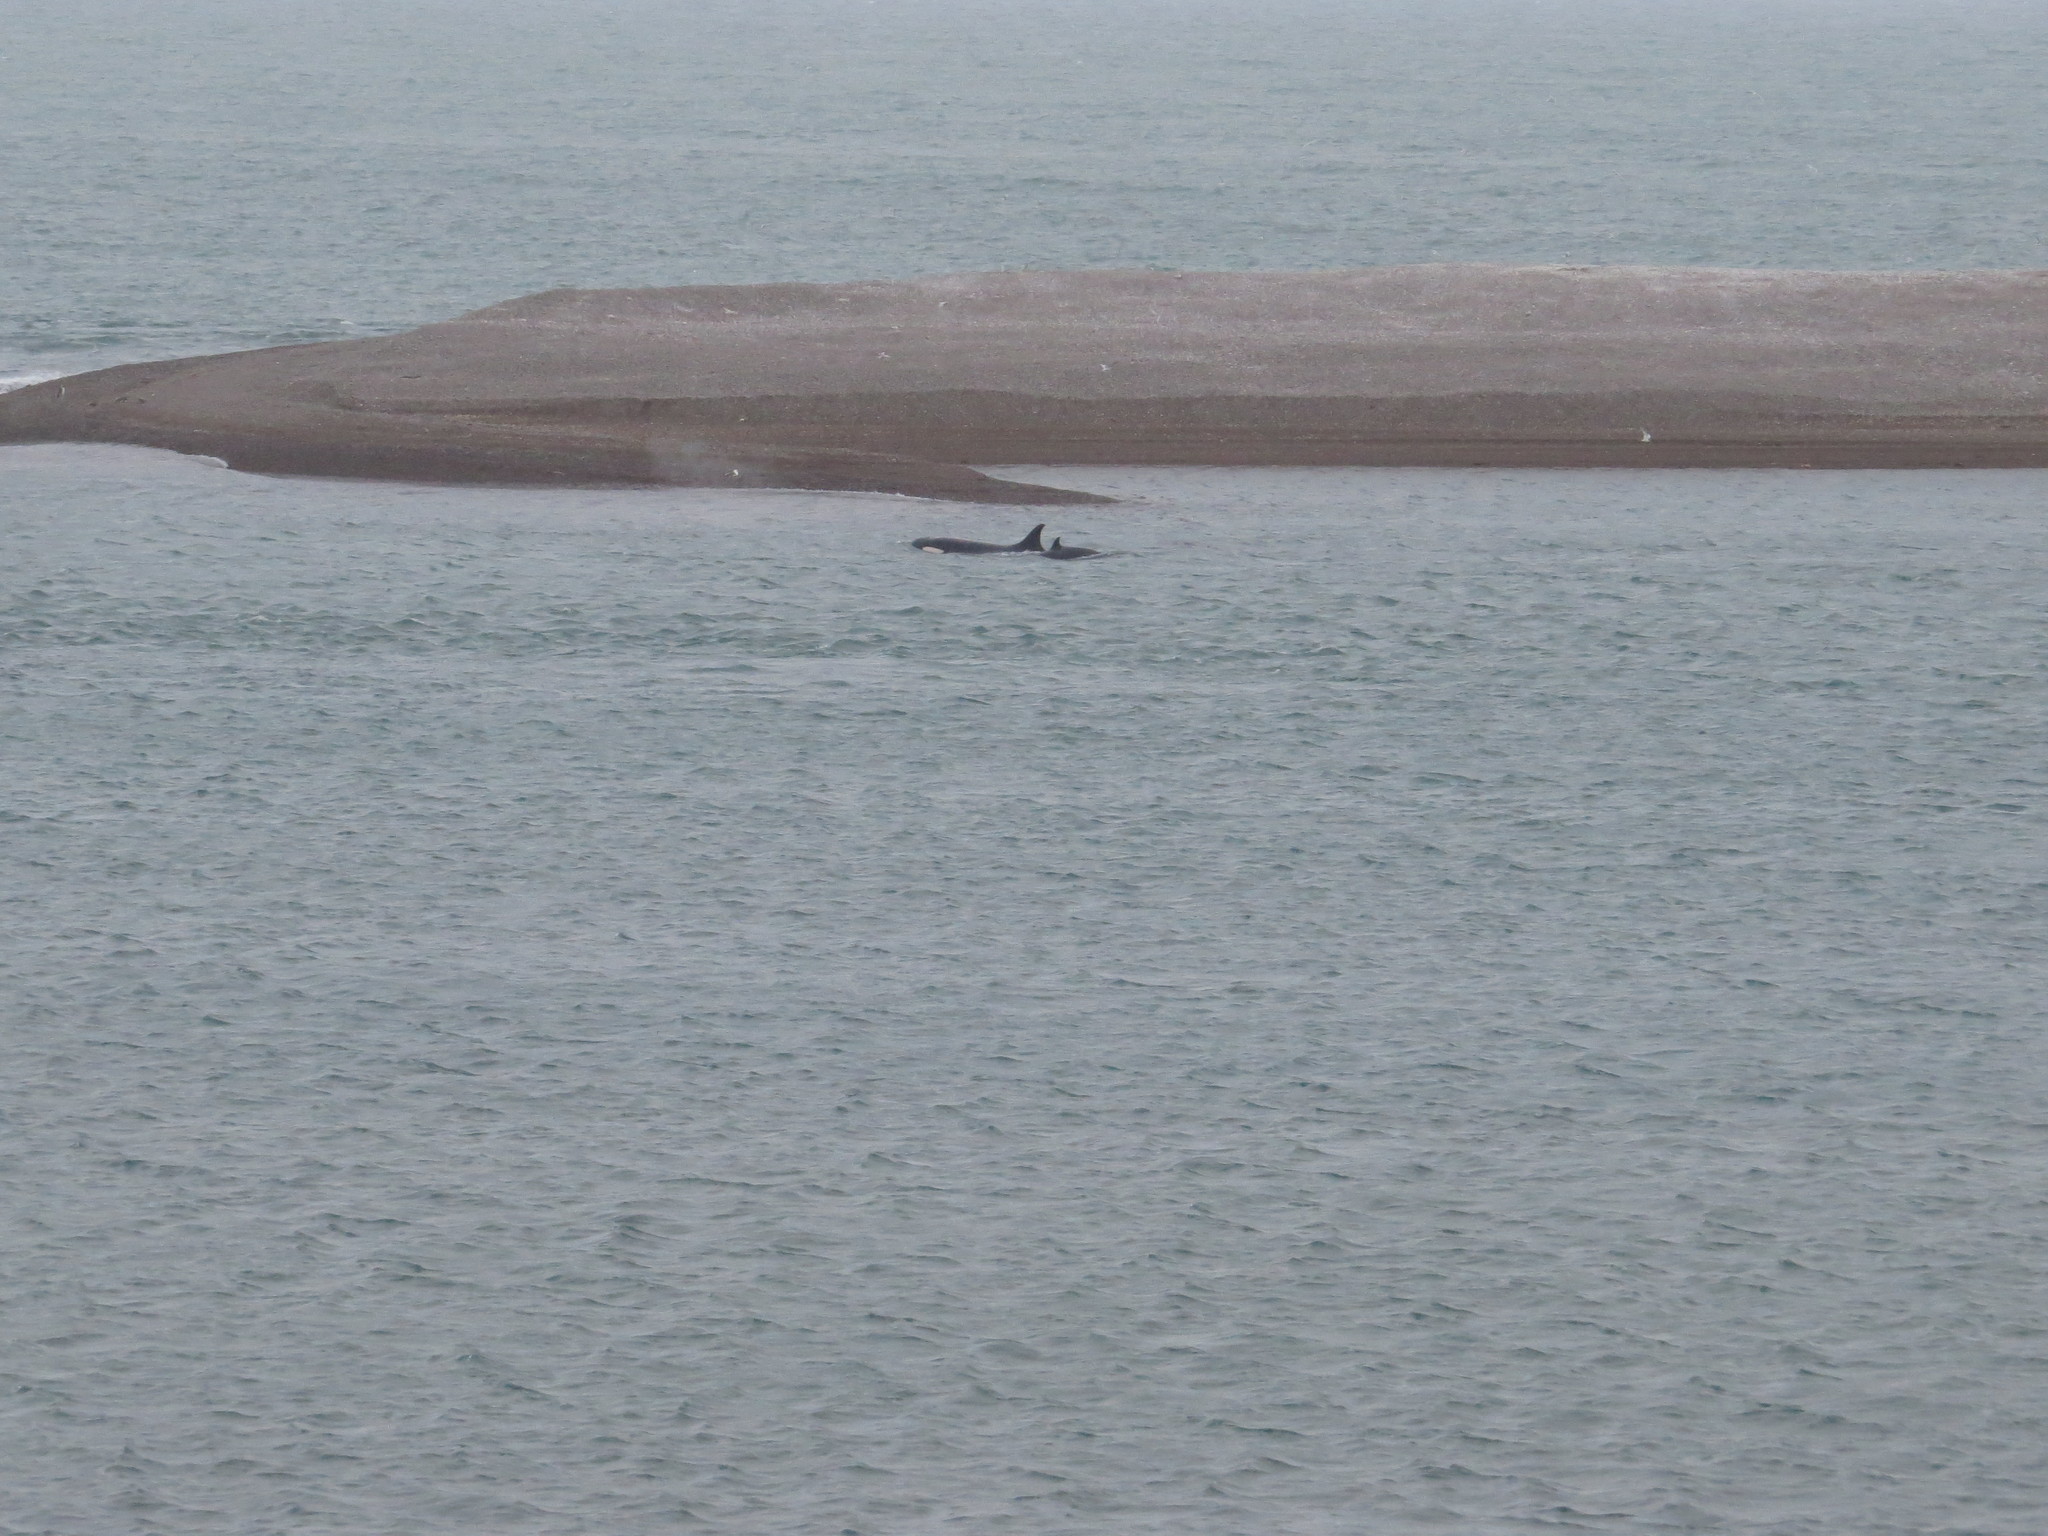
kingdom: Animalia
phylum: Chordata
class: Mammalia
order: Cetacea
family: Delphinidae
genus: Orcinus
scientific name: Orcinus orca
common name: Killer whale
